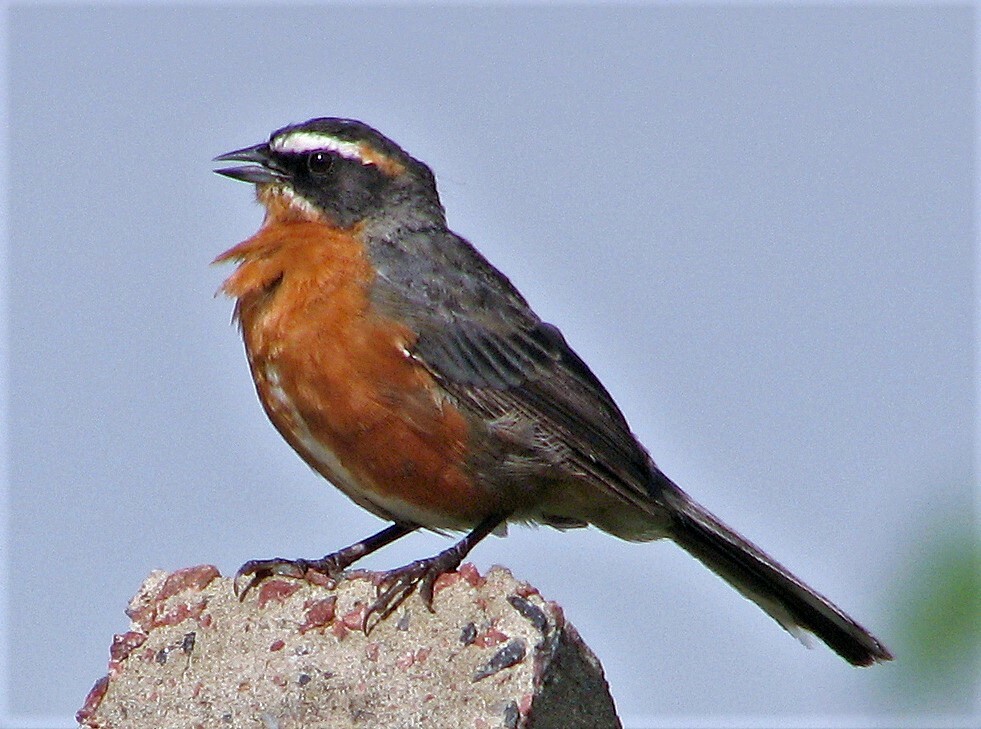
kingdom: Animalia
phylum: Chordata
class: Aves
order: Passeriformes
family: Thraupidae
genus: Poospiza
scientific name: Poospiza nigrorufa
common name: Black-and-rufous warbling finch
